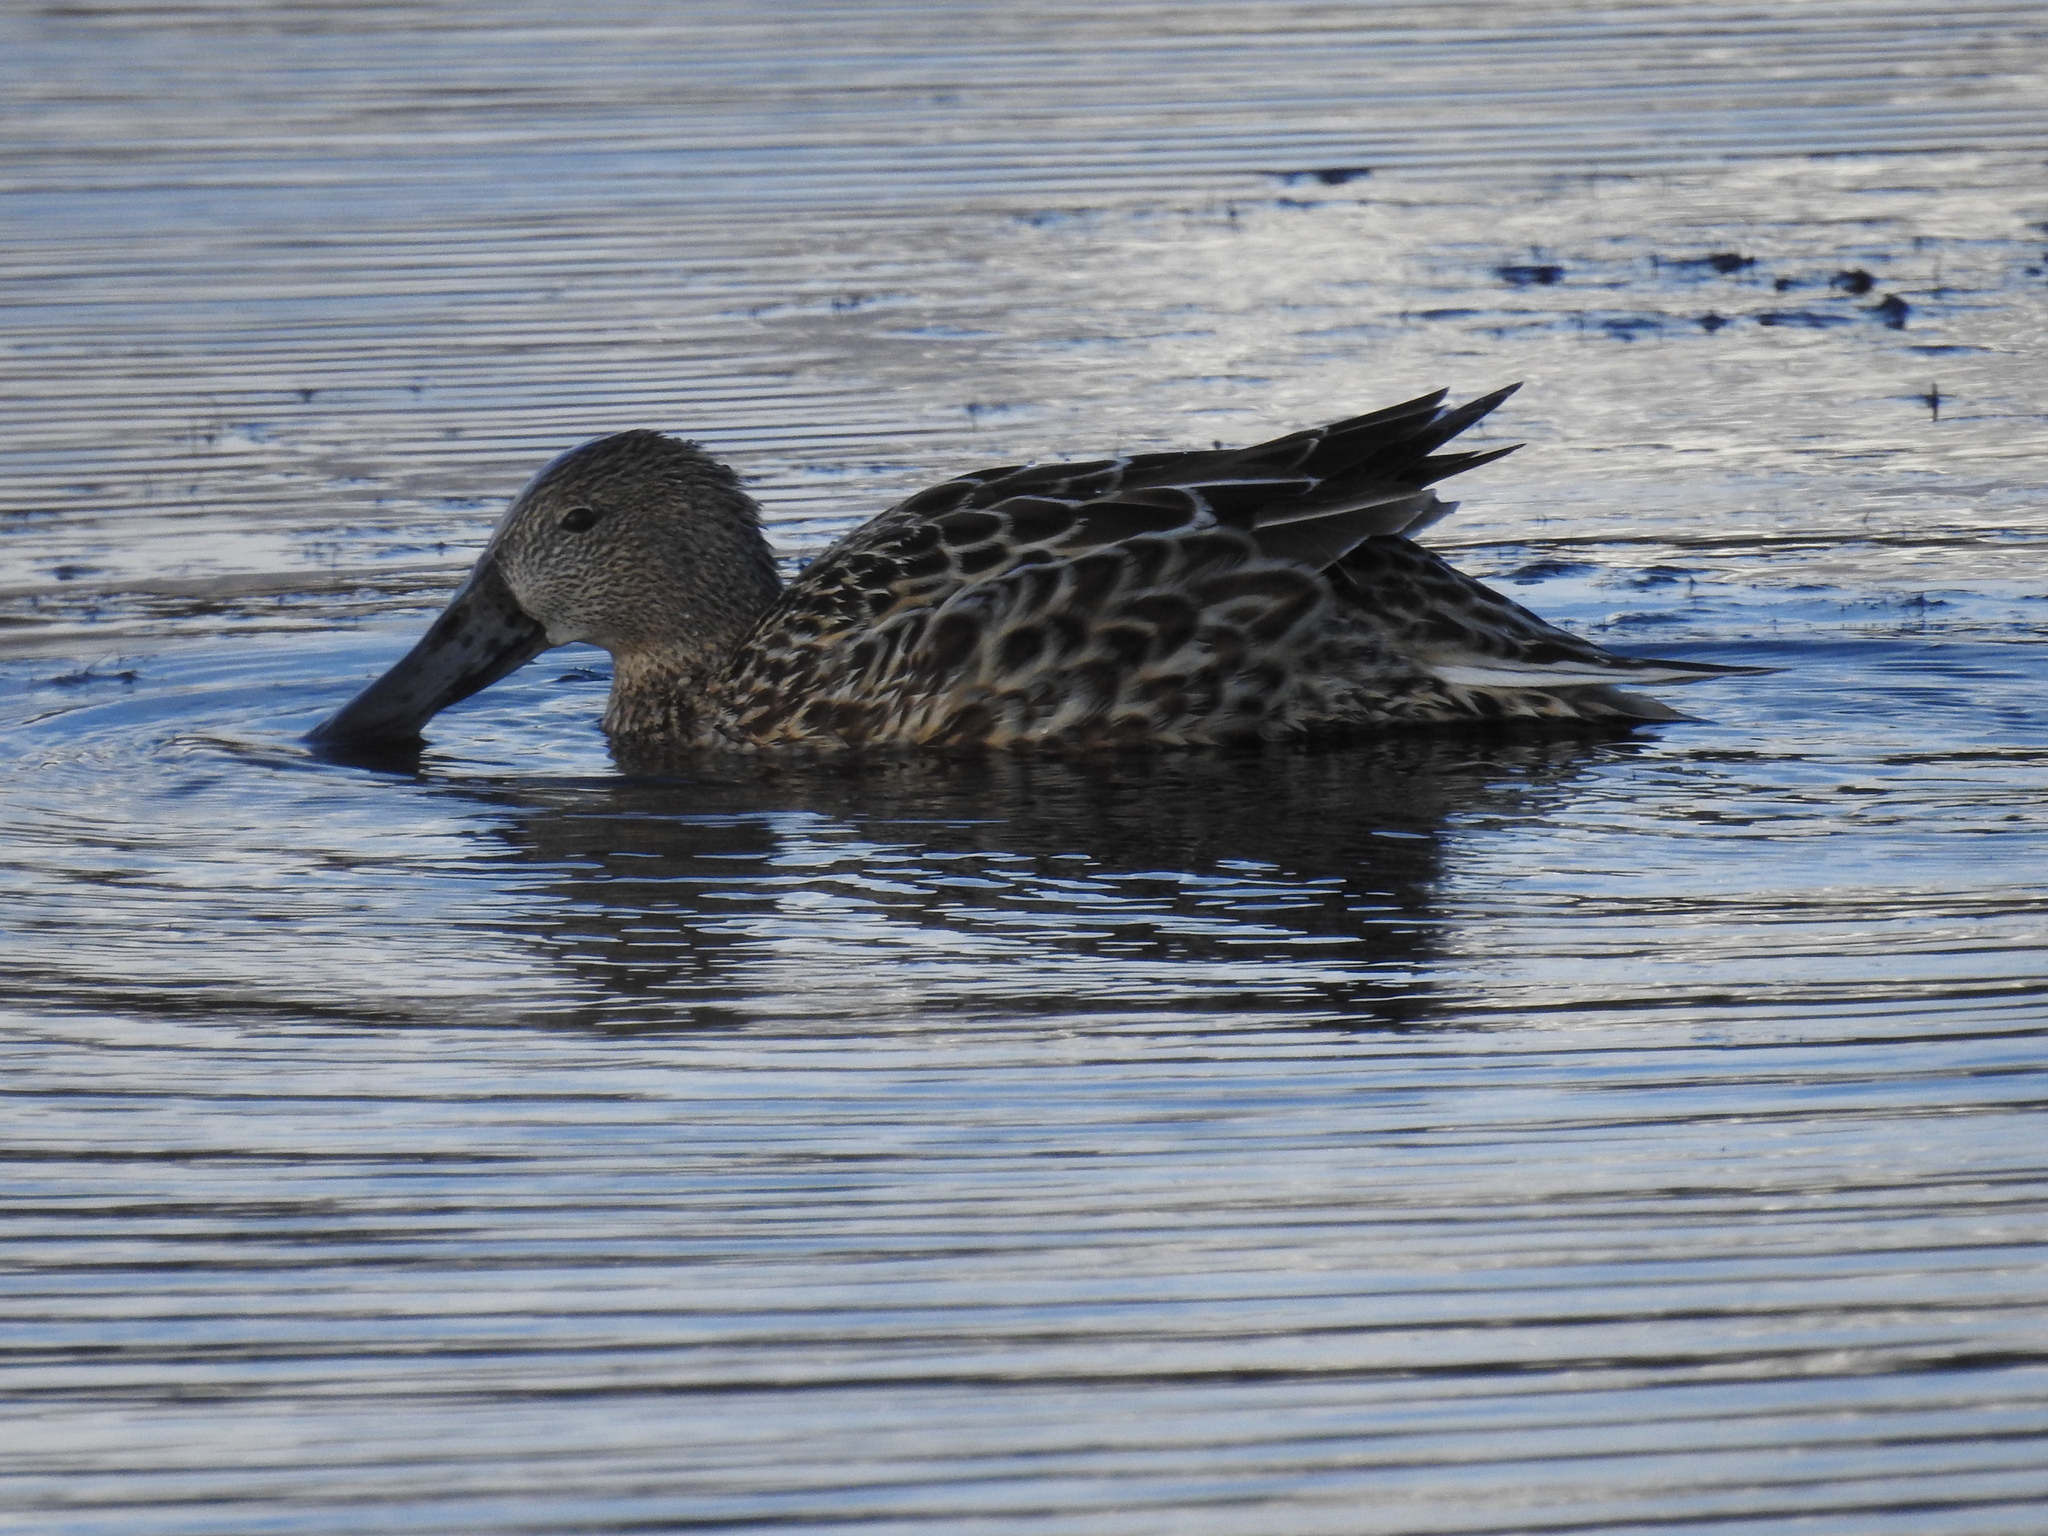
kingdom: Animalia
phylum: Chordata
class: Aves
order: Anseriformes
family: Anatidae
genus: Spatula
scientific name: Spatula platalea
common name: Red shoveler
